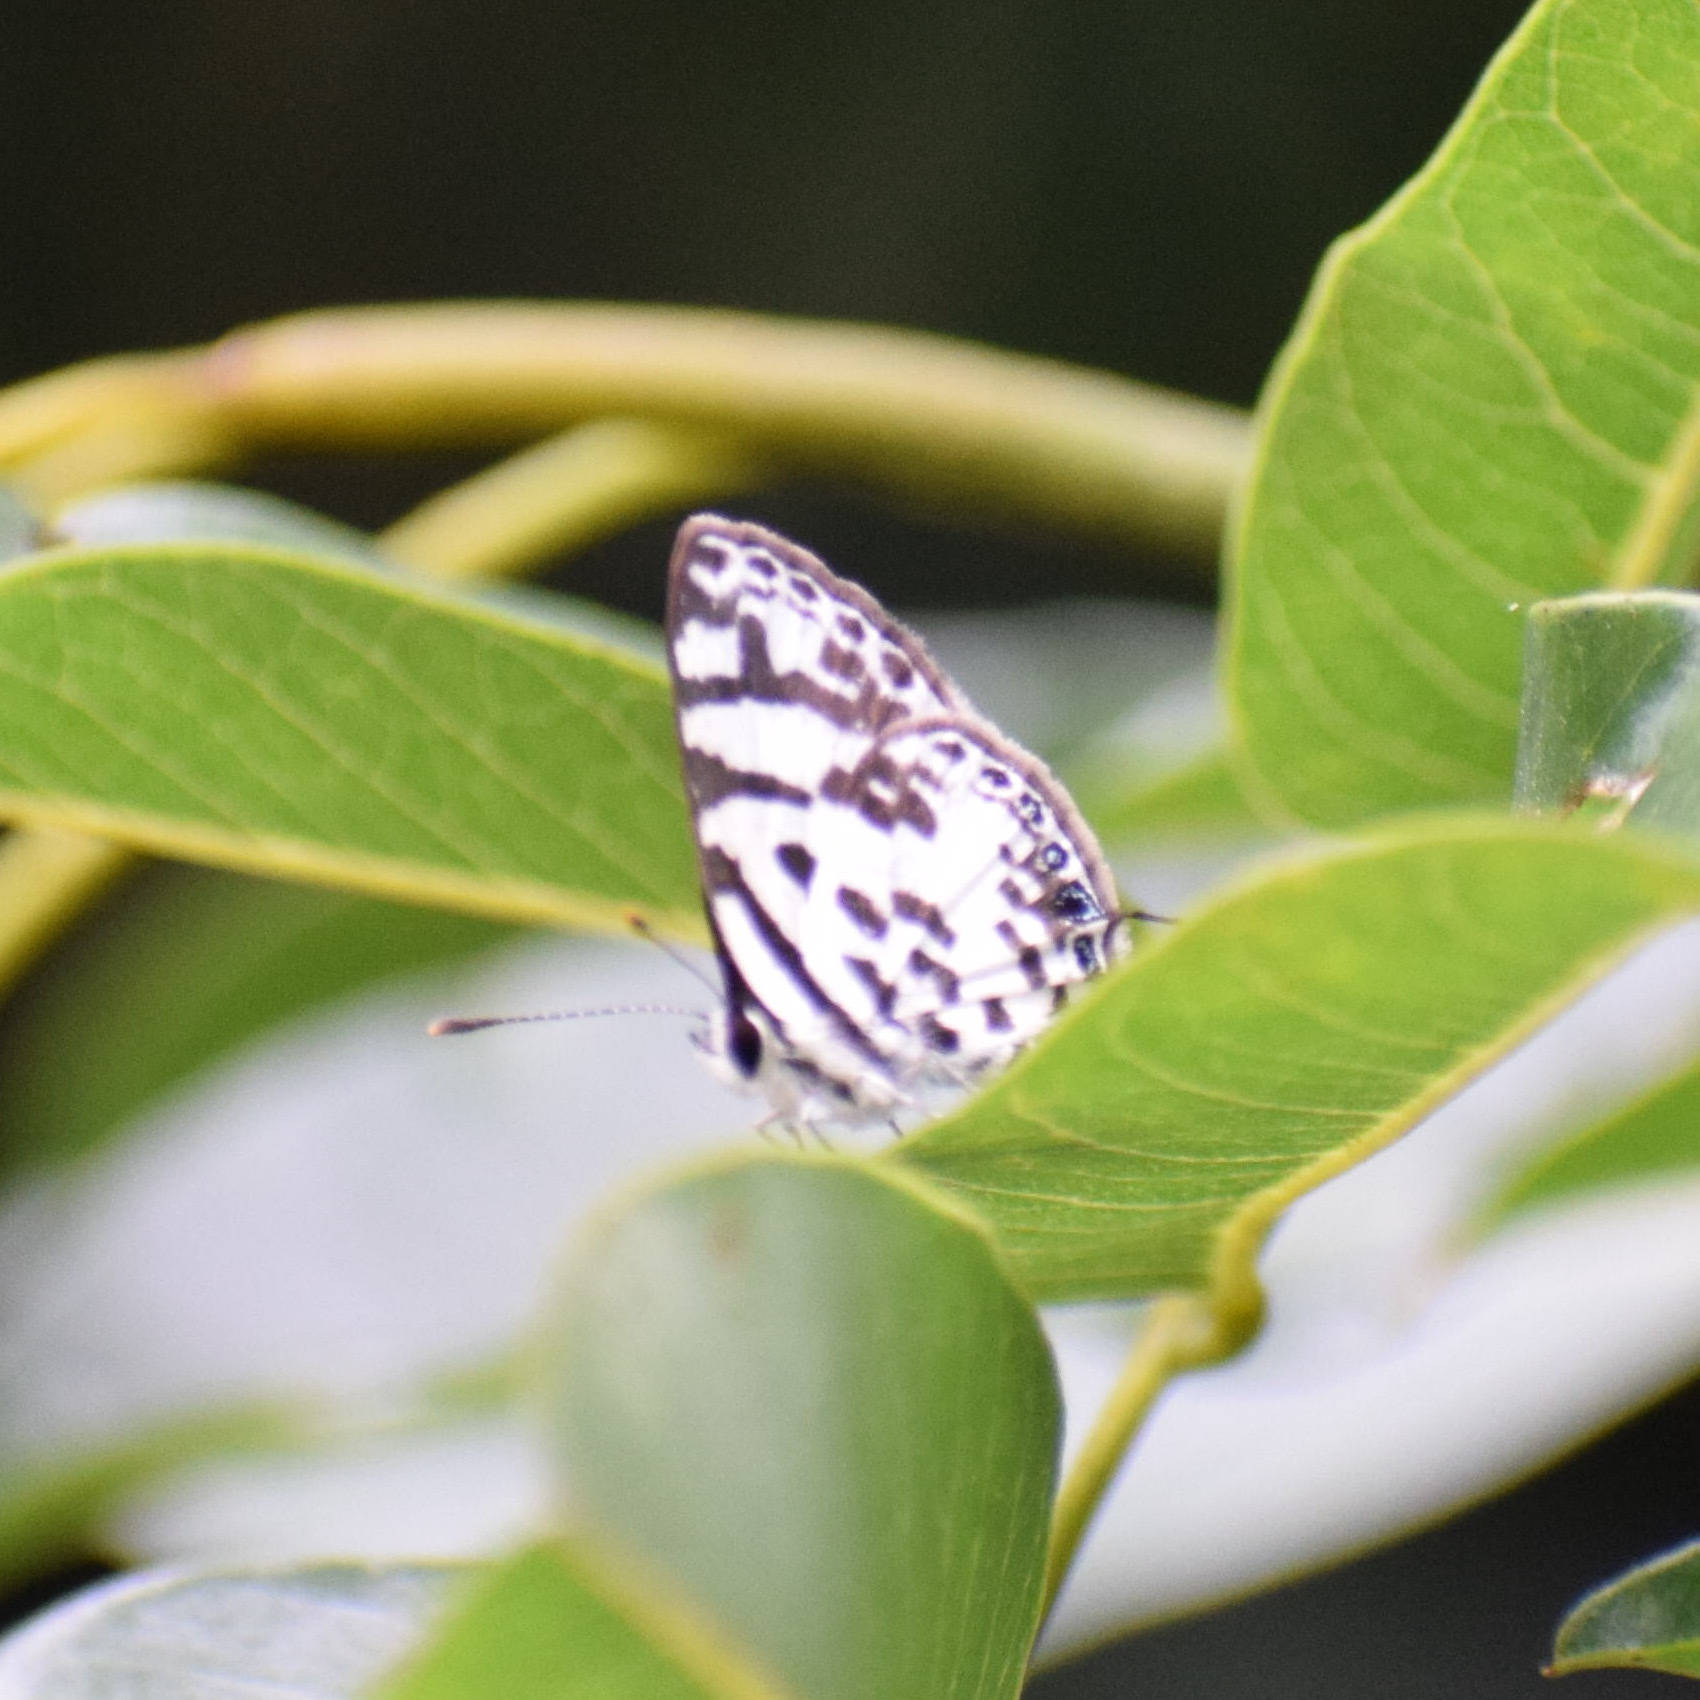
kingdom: Animalia
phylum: Arthropoda
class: Insecta
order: Lepidoptera
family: Lycaenidae
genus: Castalius
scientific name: Castalius melaena
